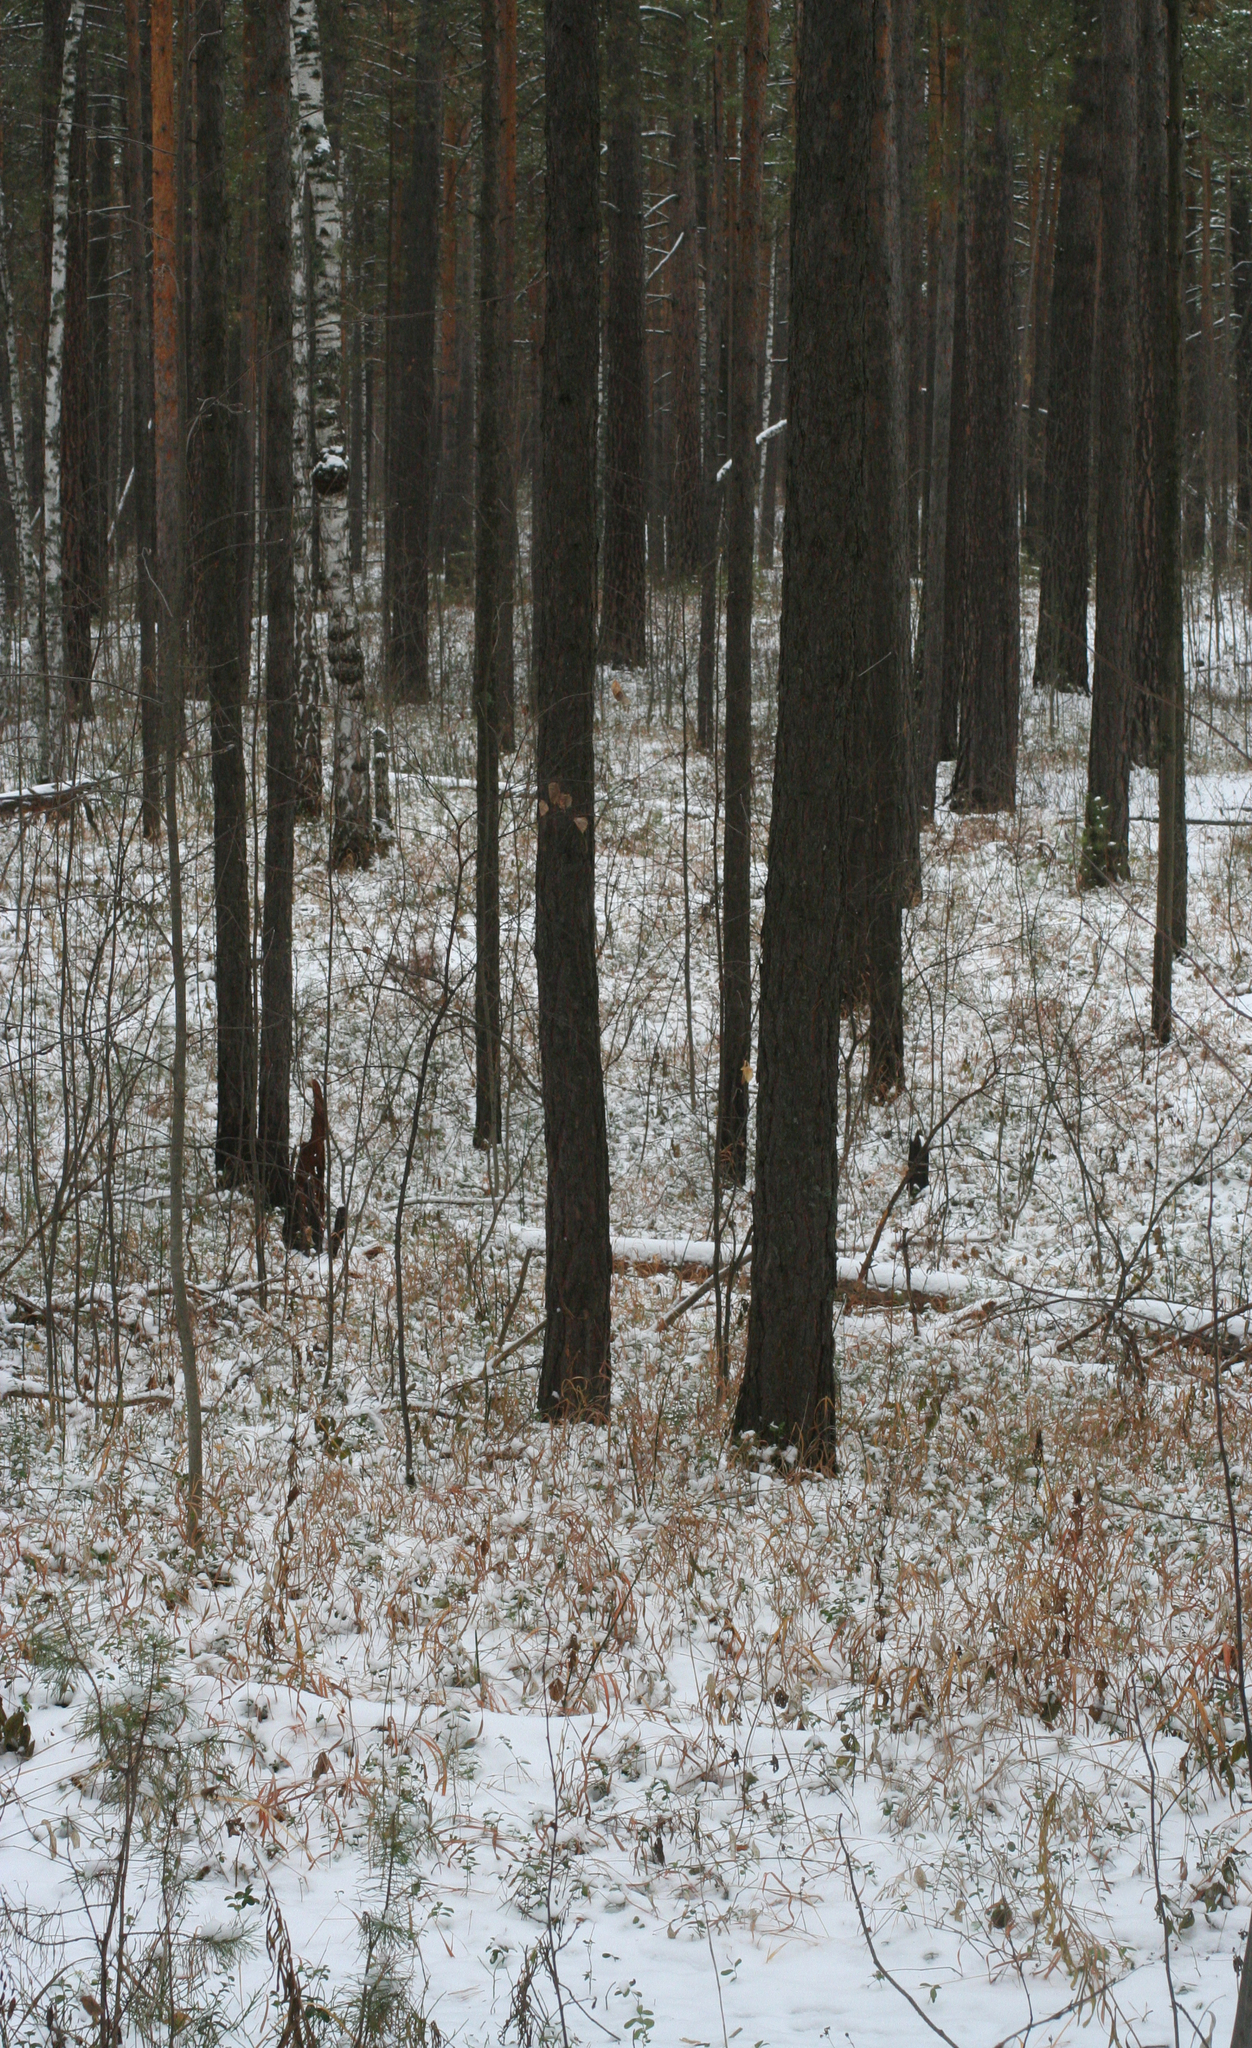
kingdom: Plantae
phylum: Tracheophyta
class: Pinopsida
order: Pinales
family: Pinaceae
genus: Pinus
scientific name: Pinus sylvestris
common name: Scots pine
